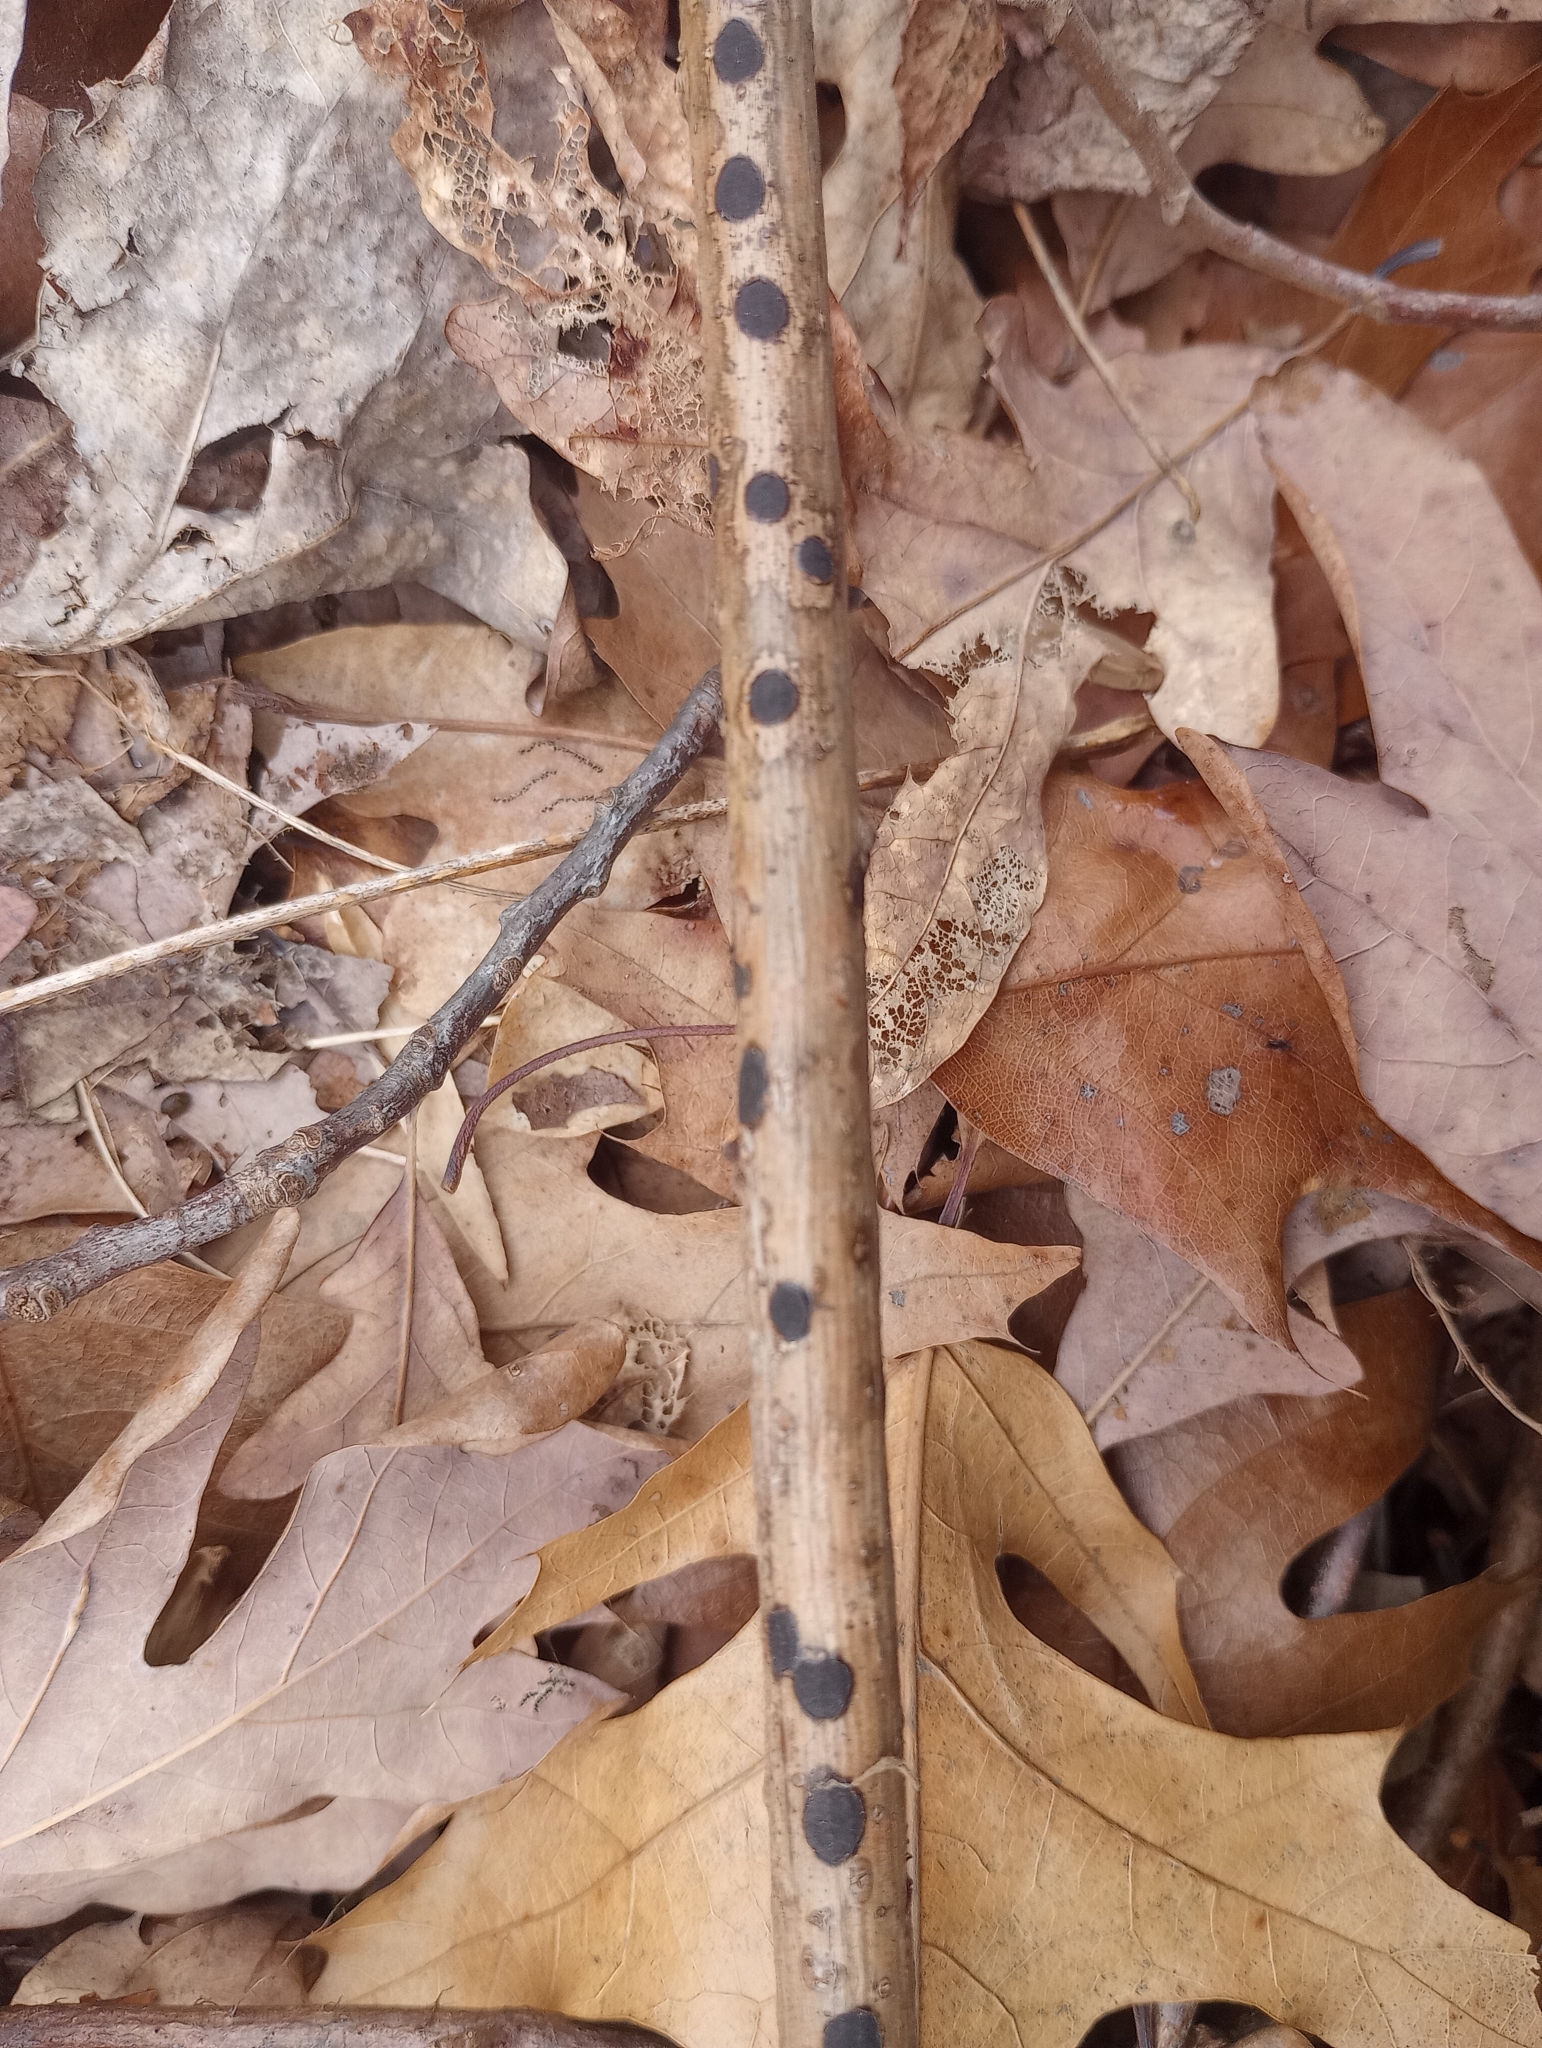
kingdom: Fungi
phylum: Ascomycota
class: Sordariomycetes
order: Xylariales
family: Xylariaceae
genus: Whalleya
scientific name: Whalleya microplaca
